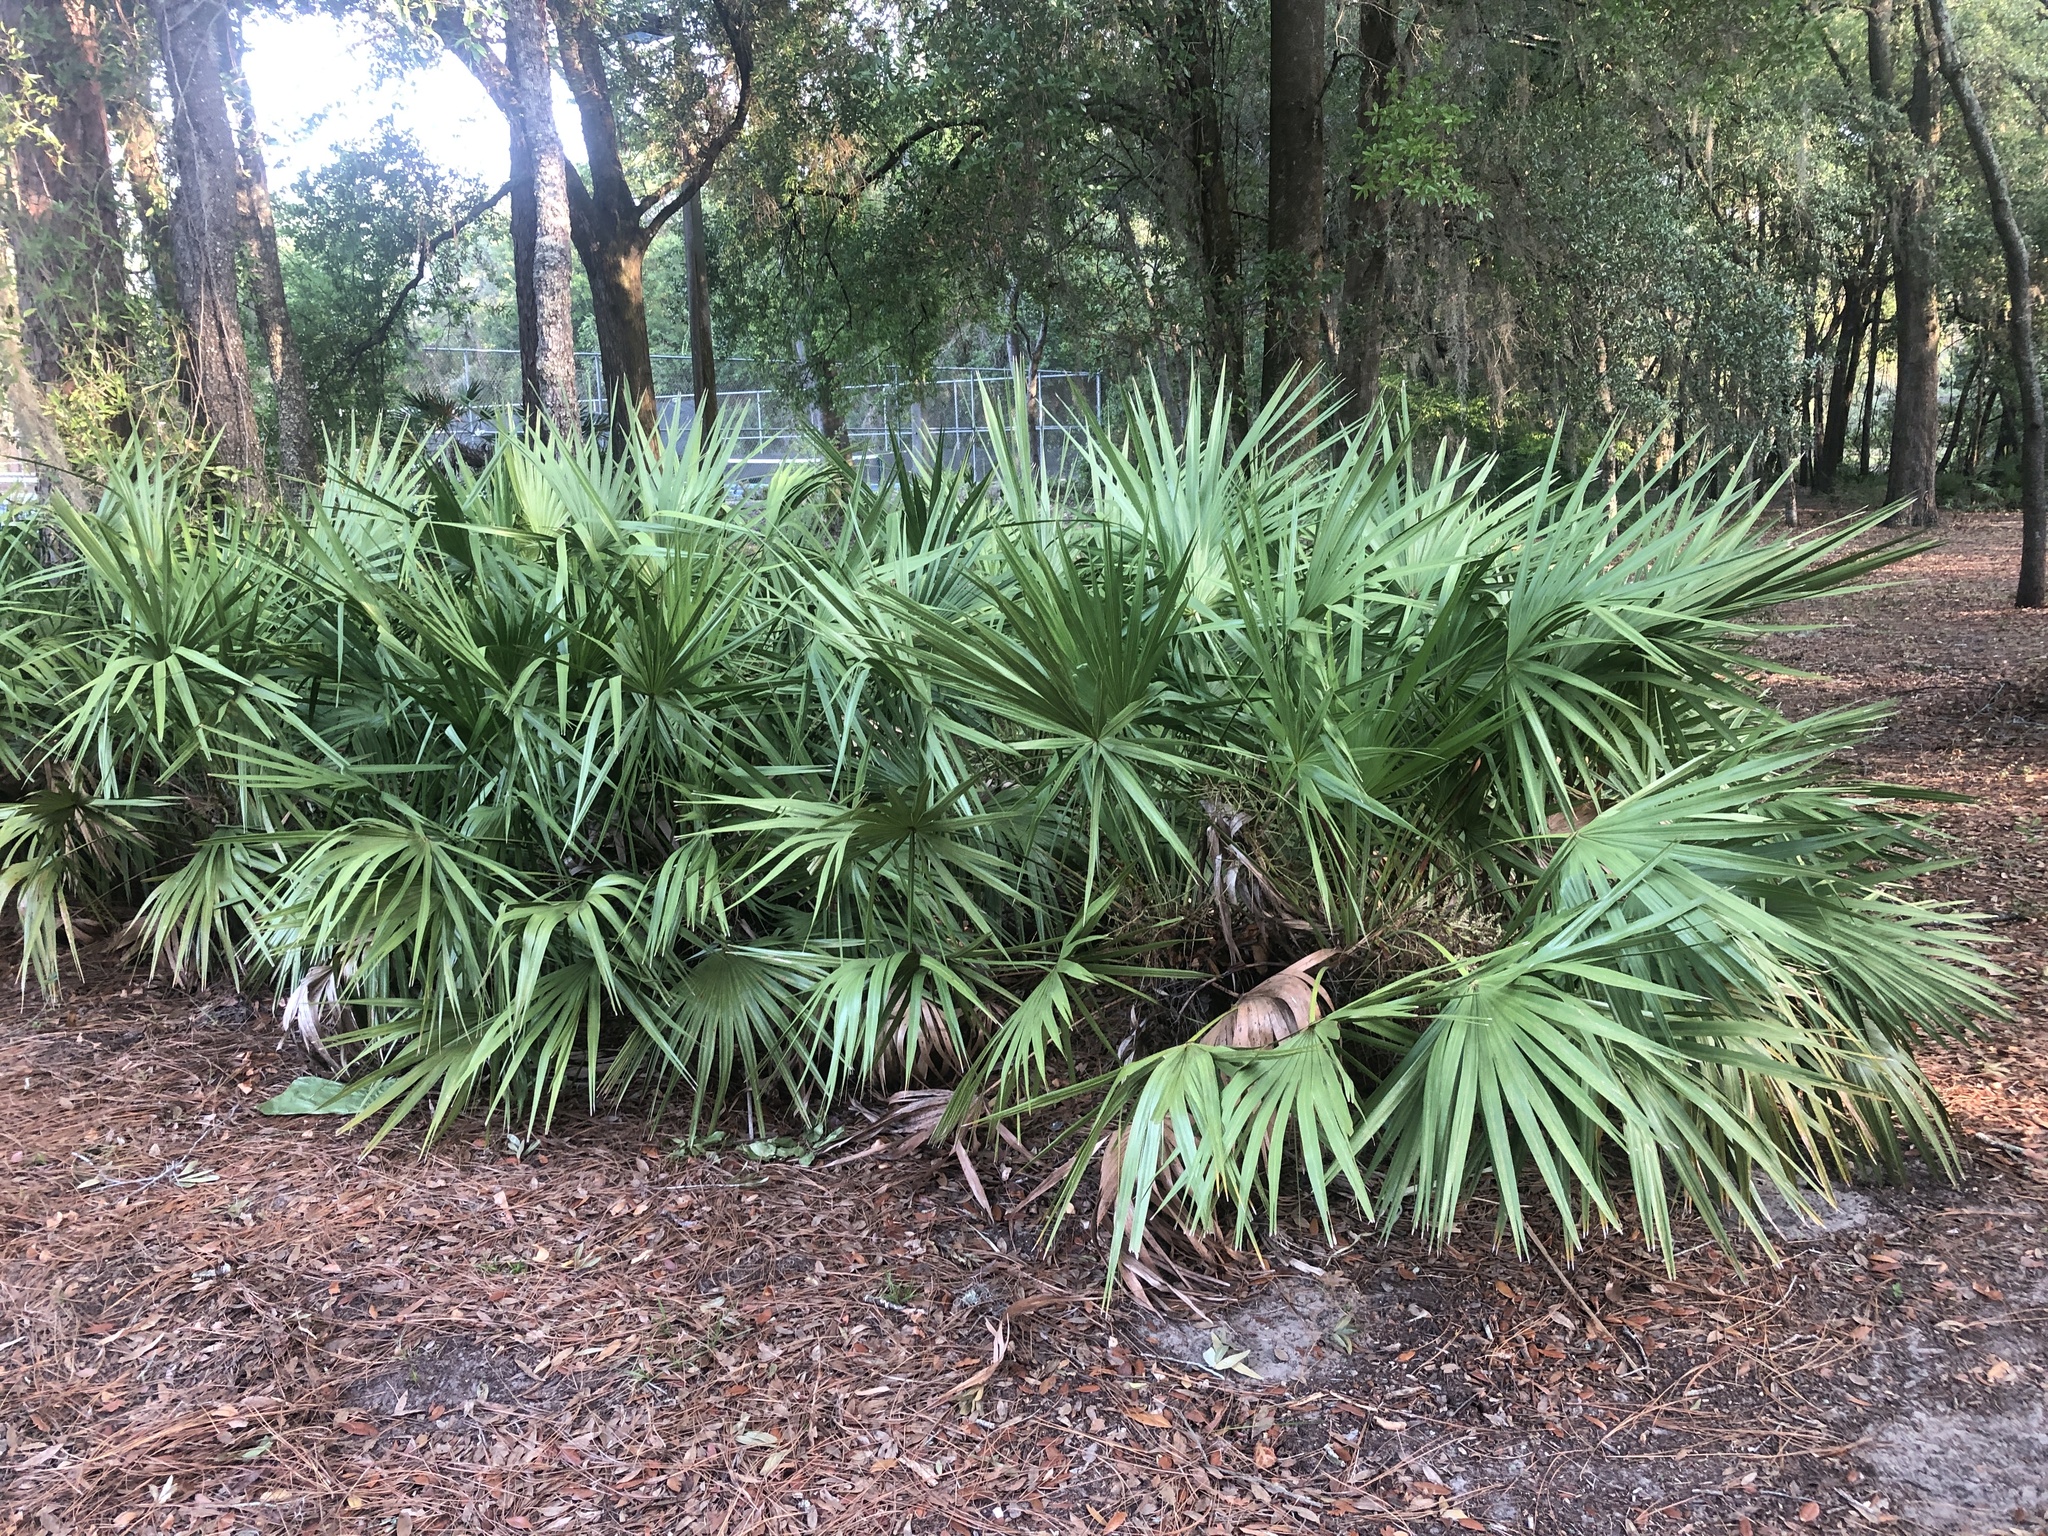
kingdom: Plantae
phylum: Tracheophyta
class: Liliopsida
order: Arecales
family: Arecaceae
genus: Serenoa
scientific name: Serenoa repens
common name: Saw-palmetto
